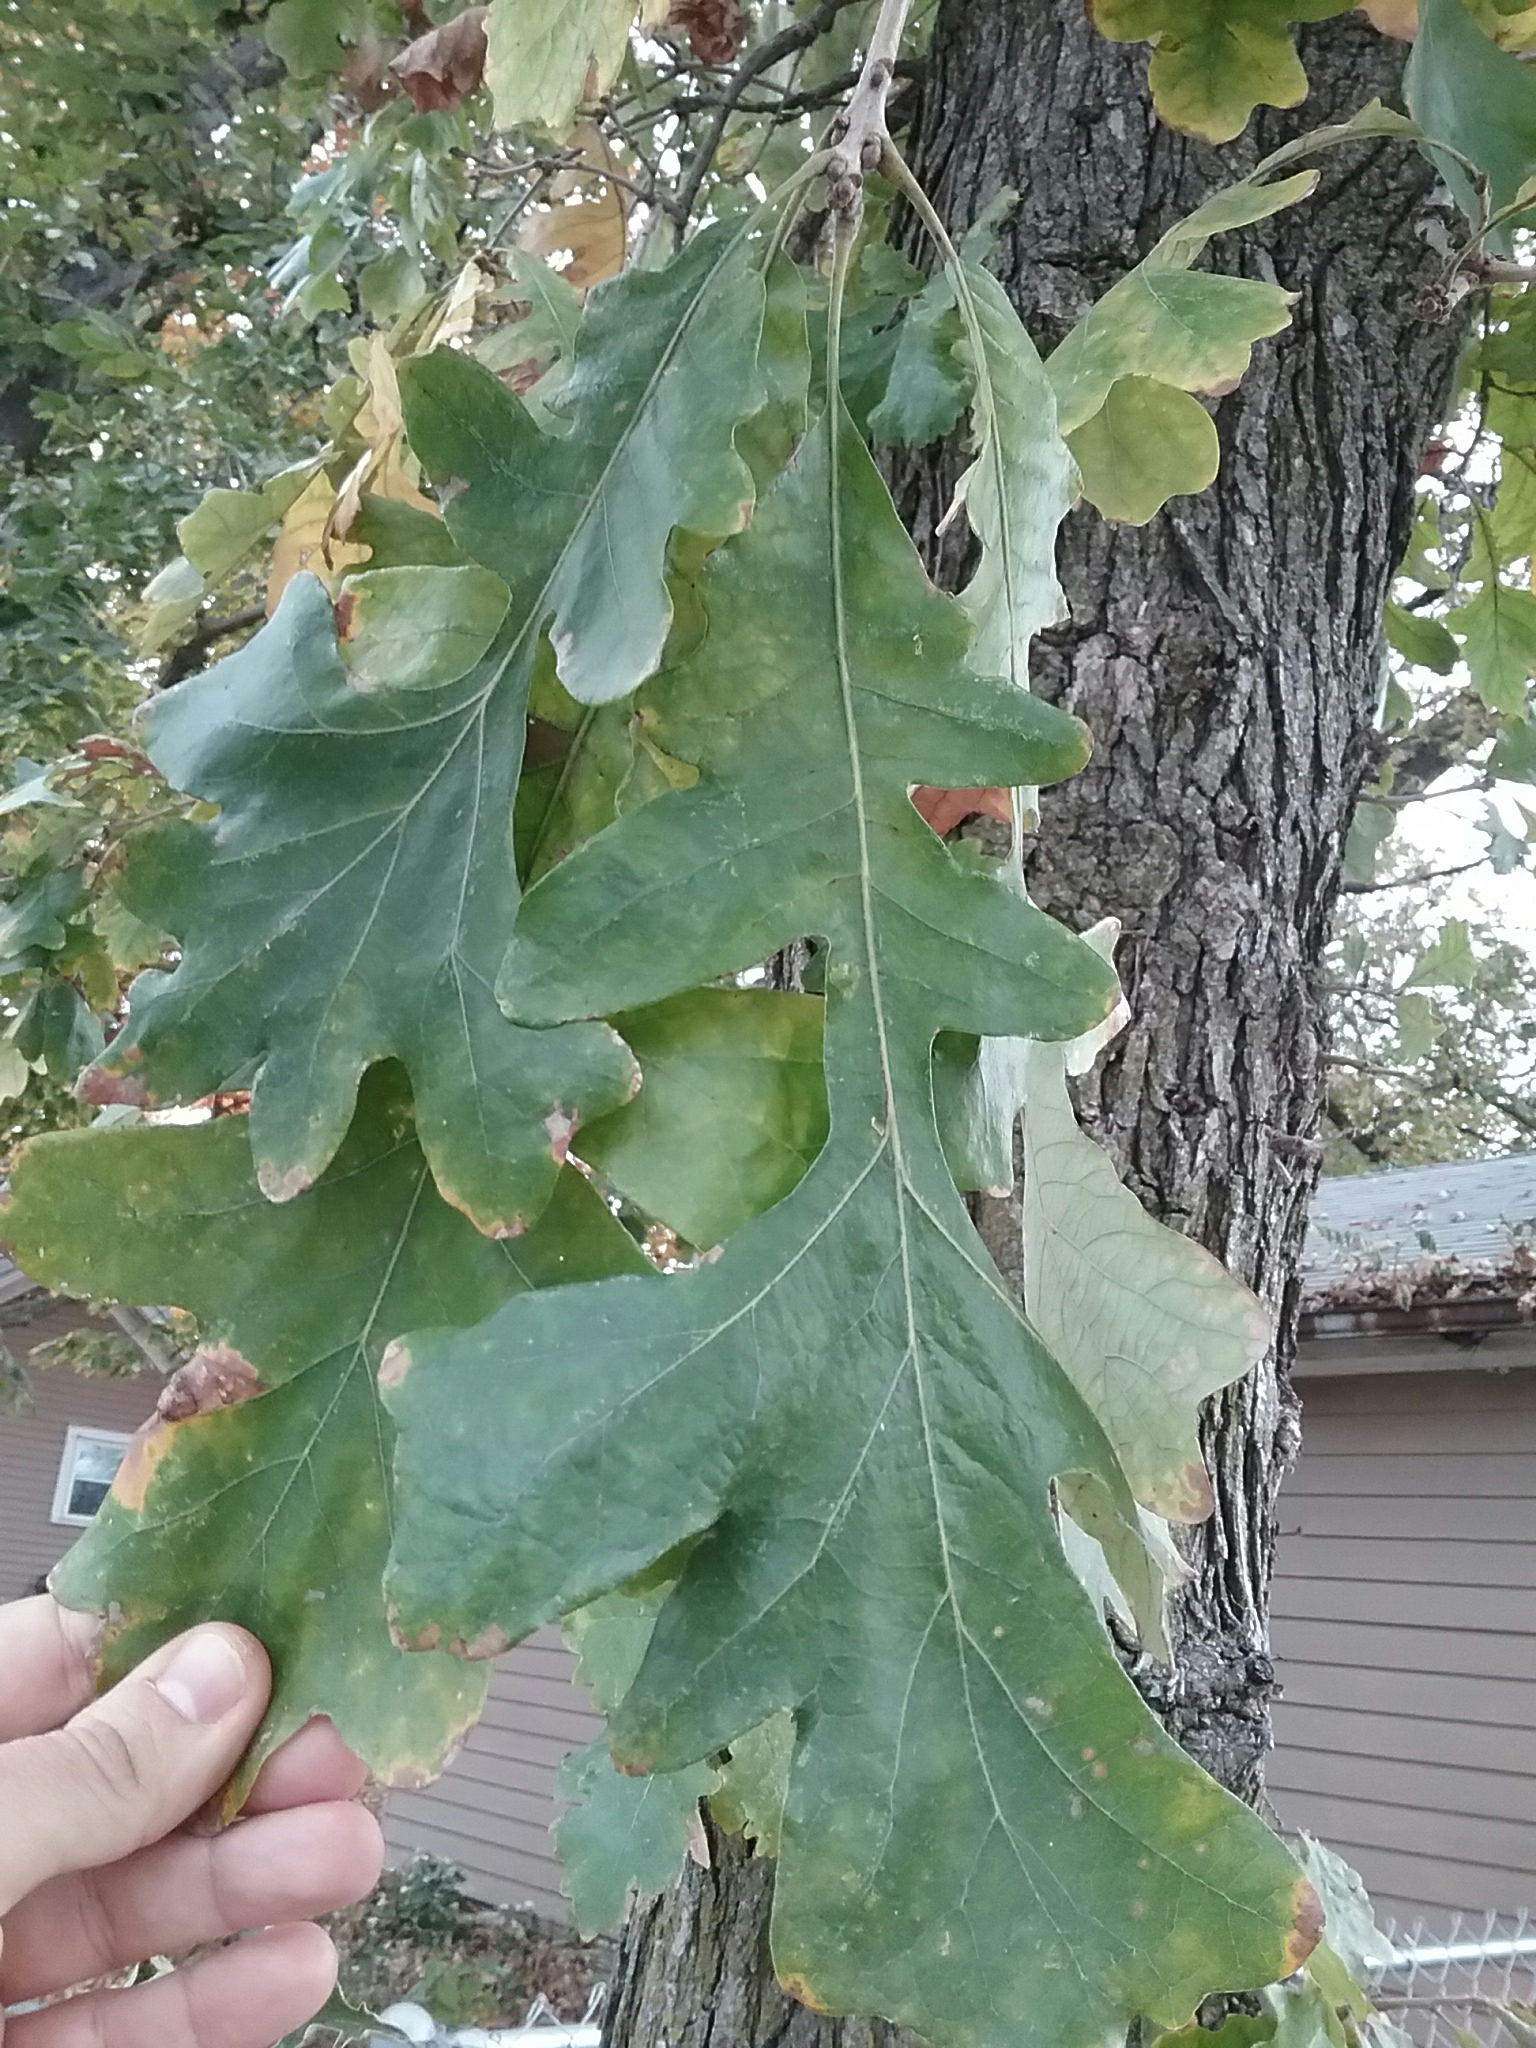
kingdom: Plantae
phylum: Tracheophyta
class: Magnoliopsida
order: Fagales
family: Fagaceae
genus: Quercus
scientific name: Quercus macrocarpa
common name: Bur oak
